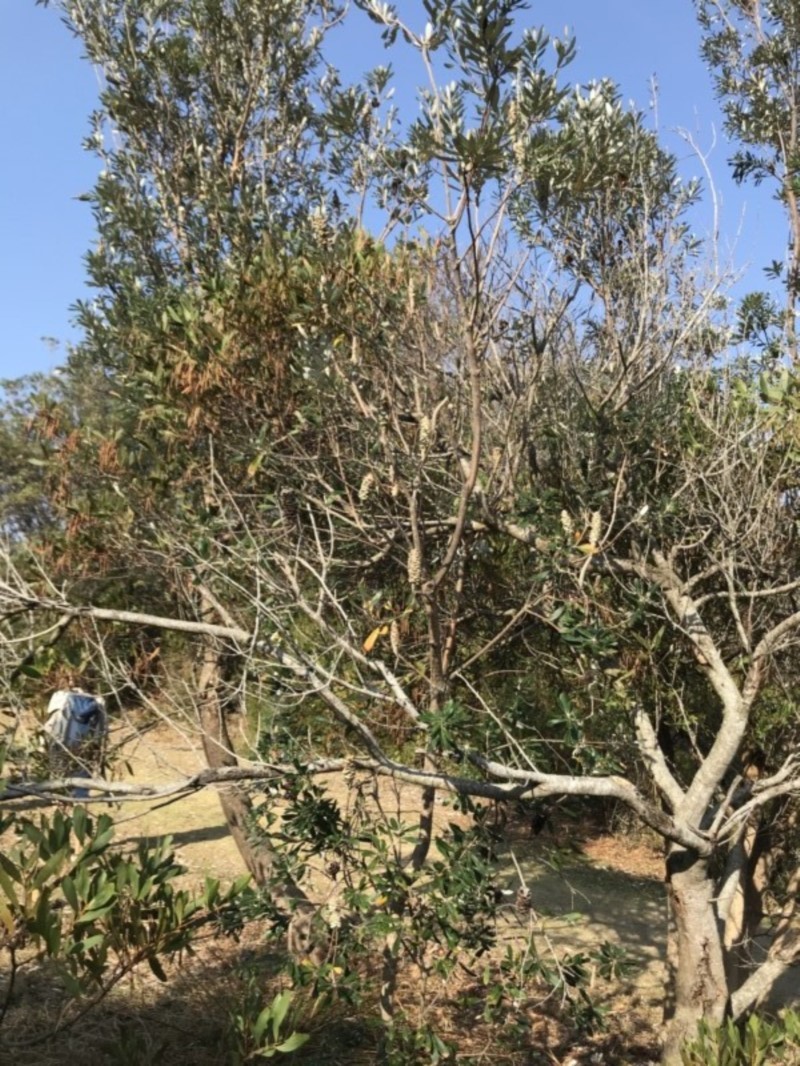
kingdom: Plantae
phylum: Tracheophyta
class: Magnoliopsida
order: Proteales
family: Proteaceae
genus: Banksia
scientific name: Banksia integrifolia
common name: White-honeysuckle
